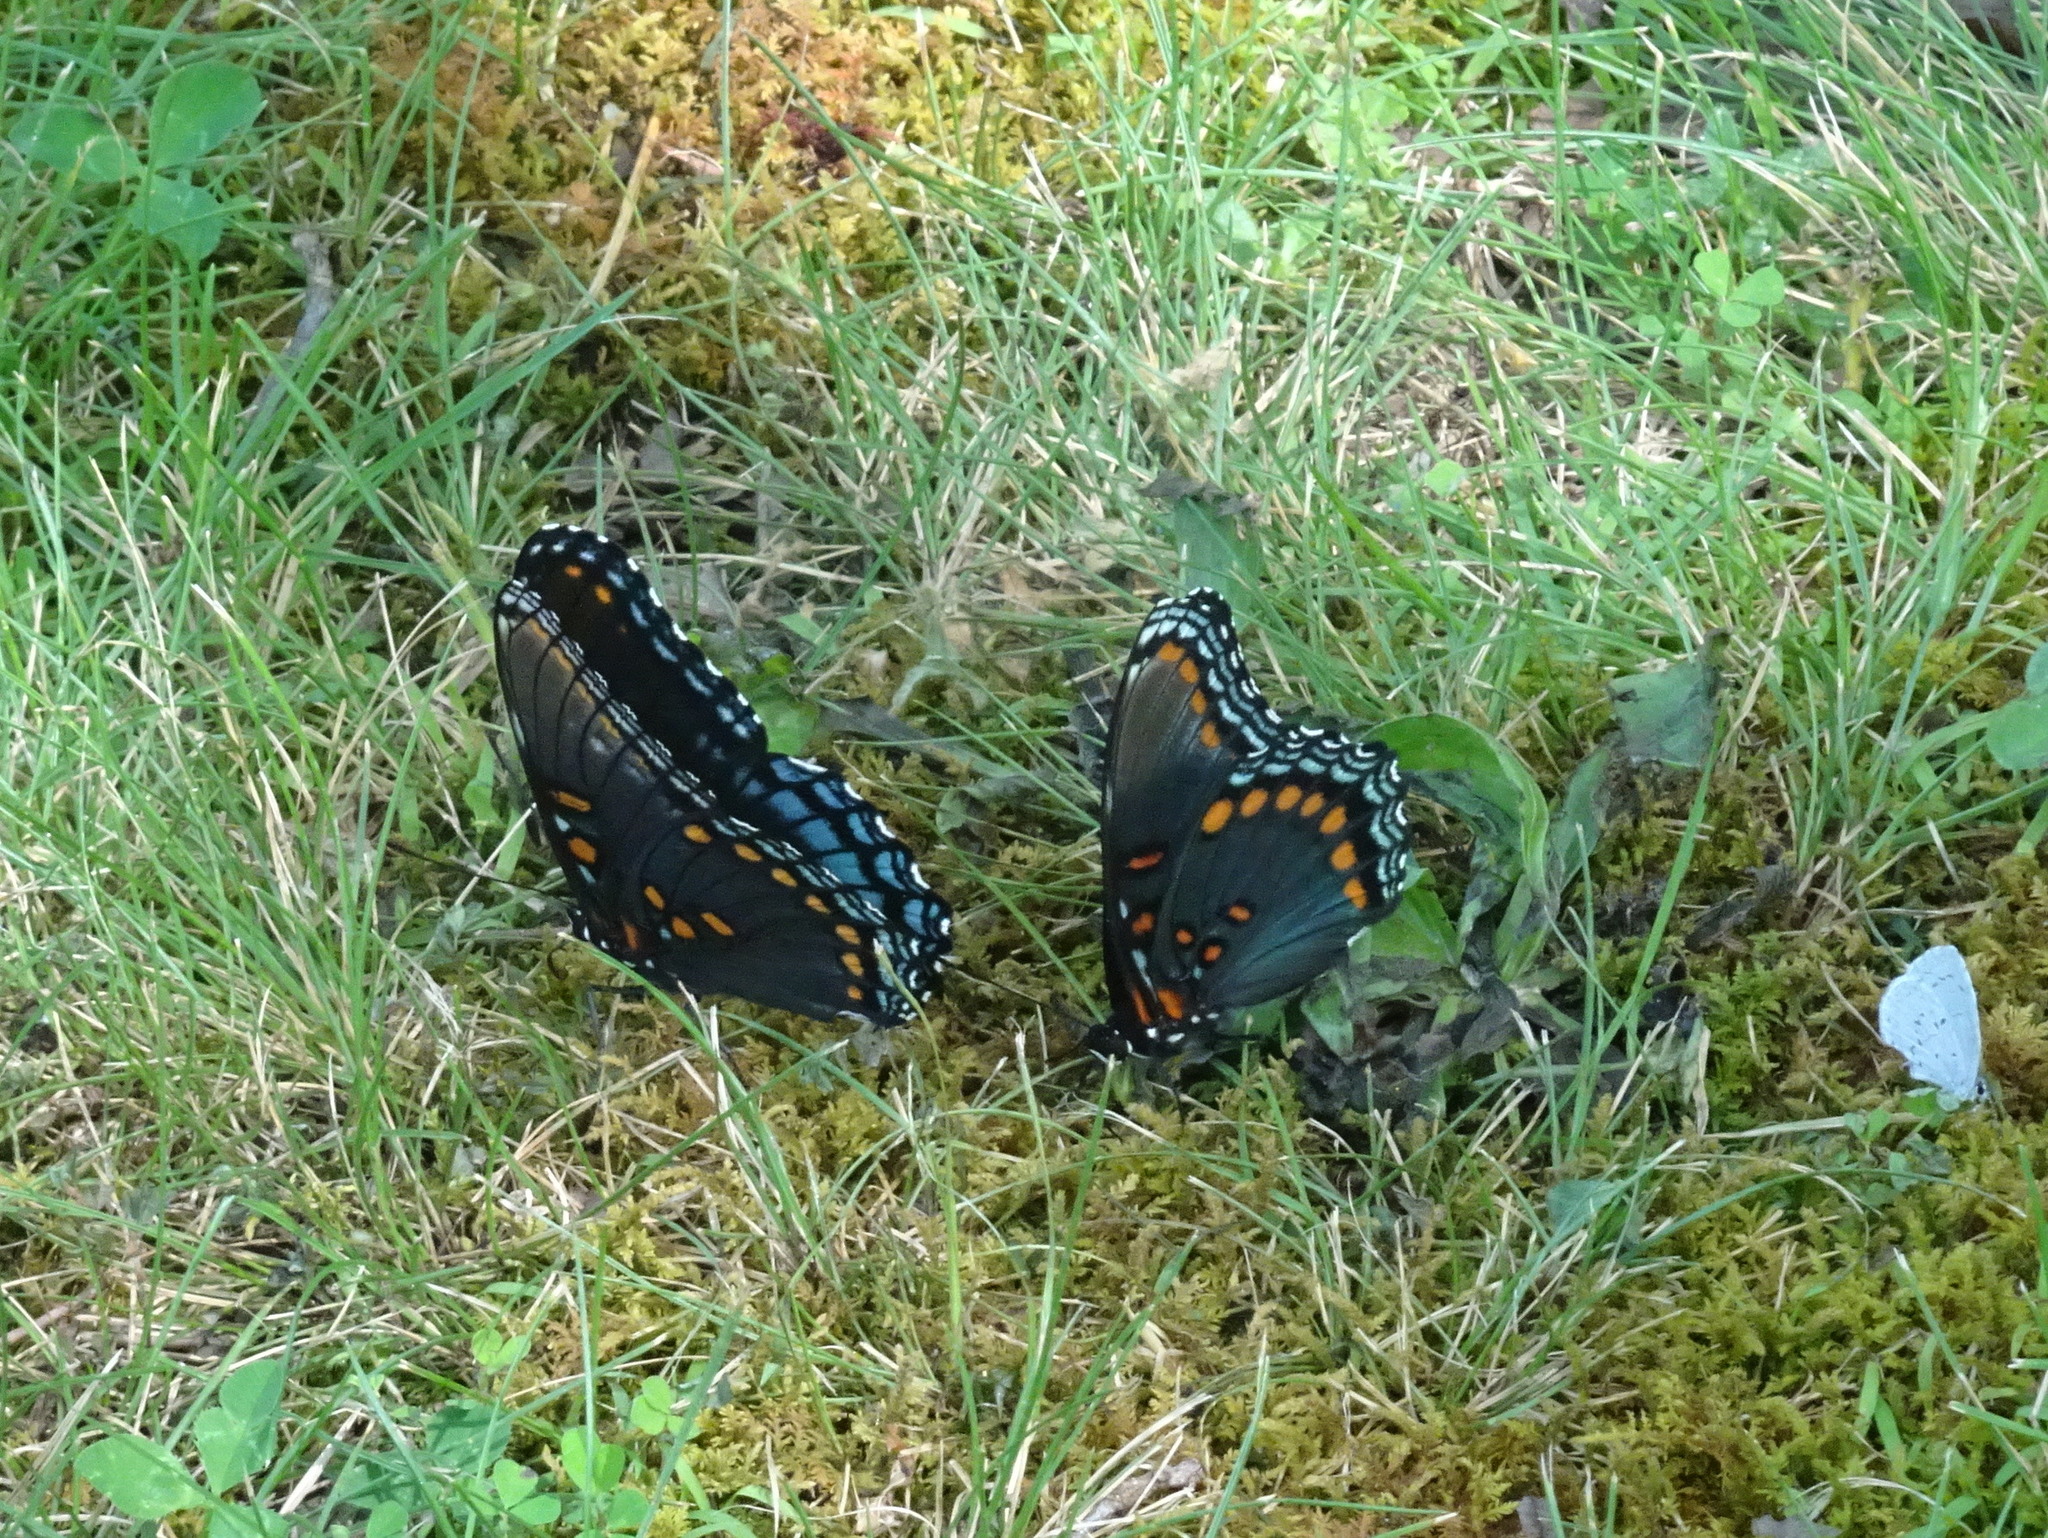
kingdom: Animalia
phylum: Arthropoda
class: Insecta
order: Lepidoptera
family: Nymphalidae
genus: Limenitis
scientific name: Limenitis astyanax
